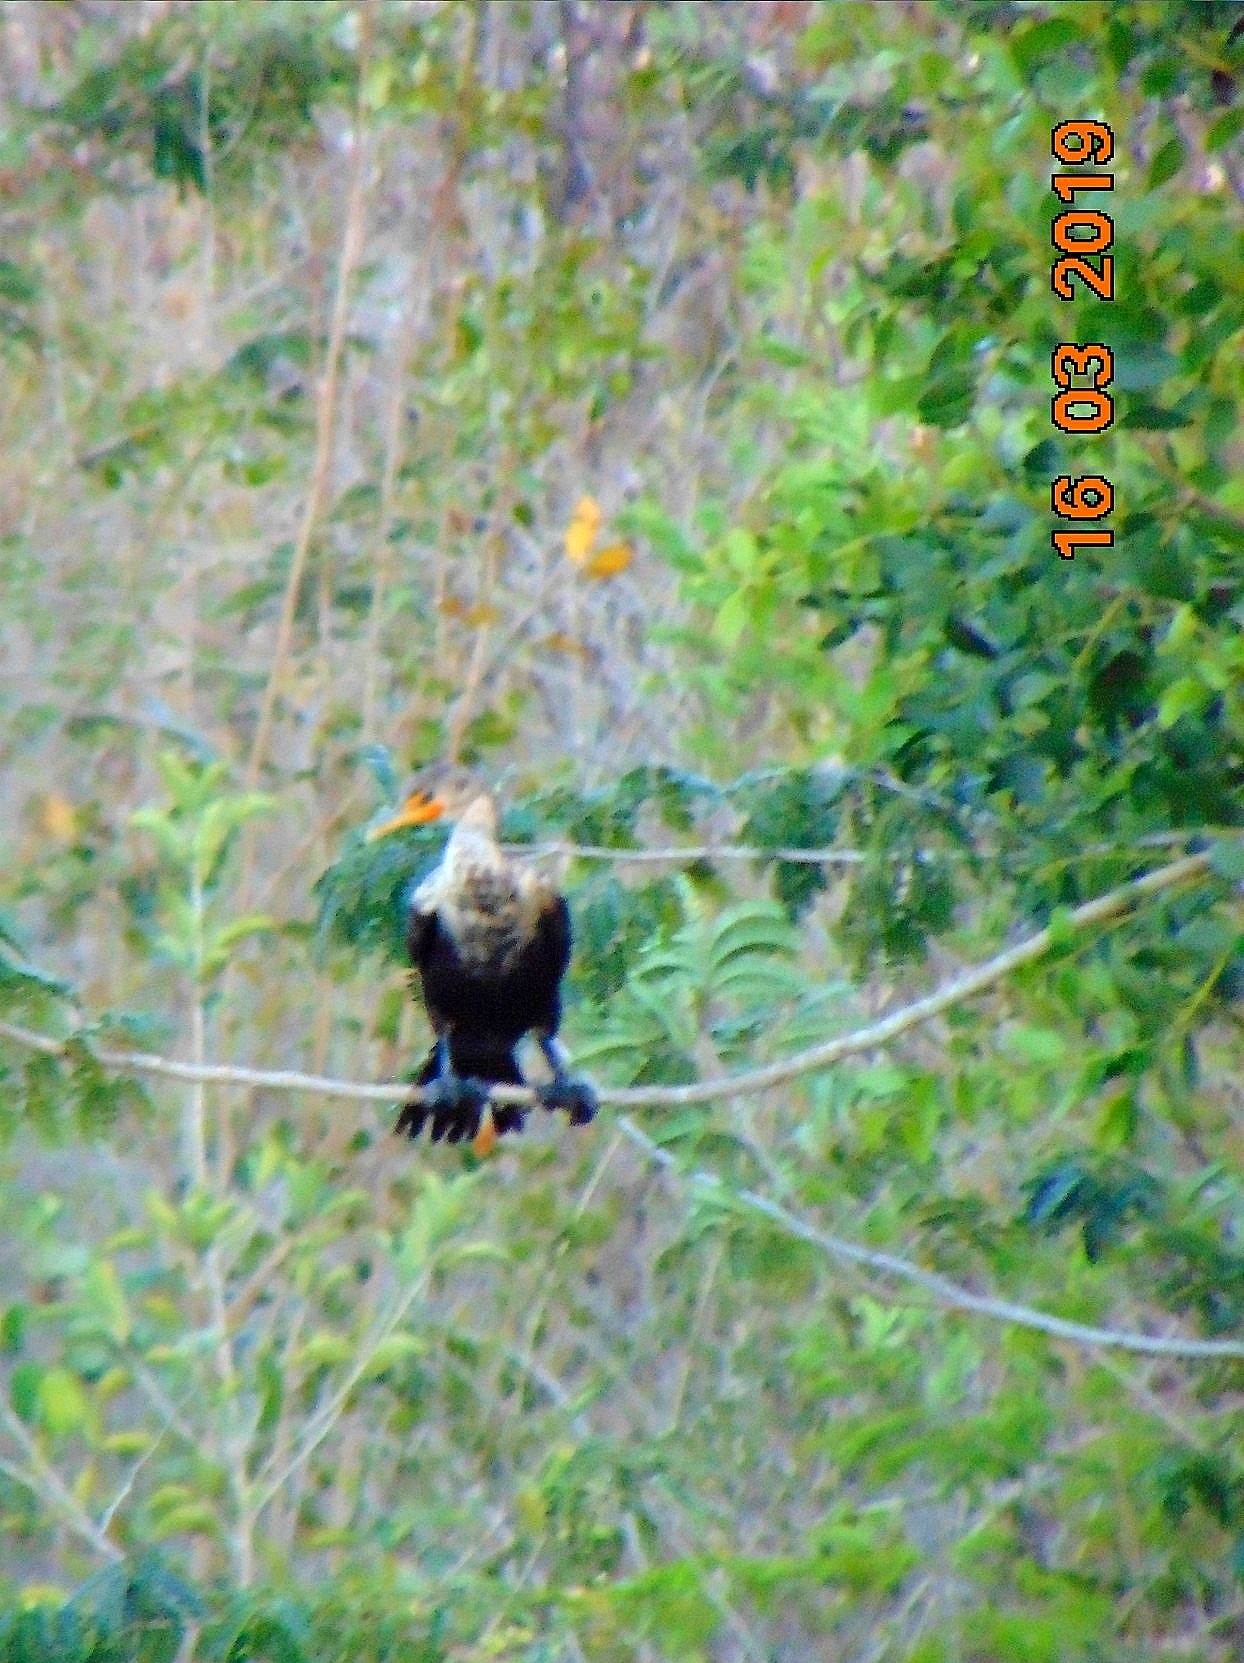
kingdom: Animalia
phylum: Chordata
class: Aves
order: Suliformes
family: Phalacrocoracidae
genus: Phalacrocorax
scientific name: Phalacrocorax auritus
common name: Double-crested cormorant
